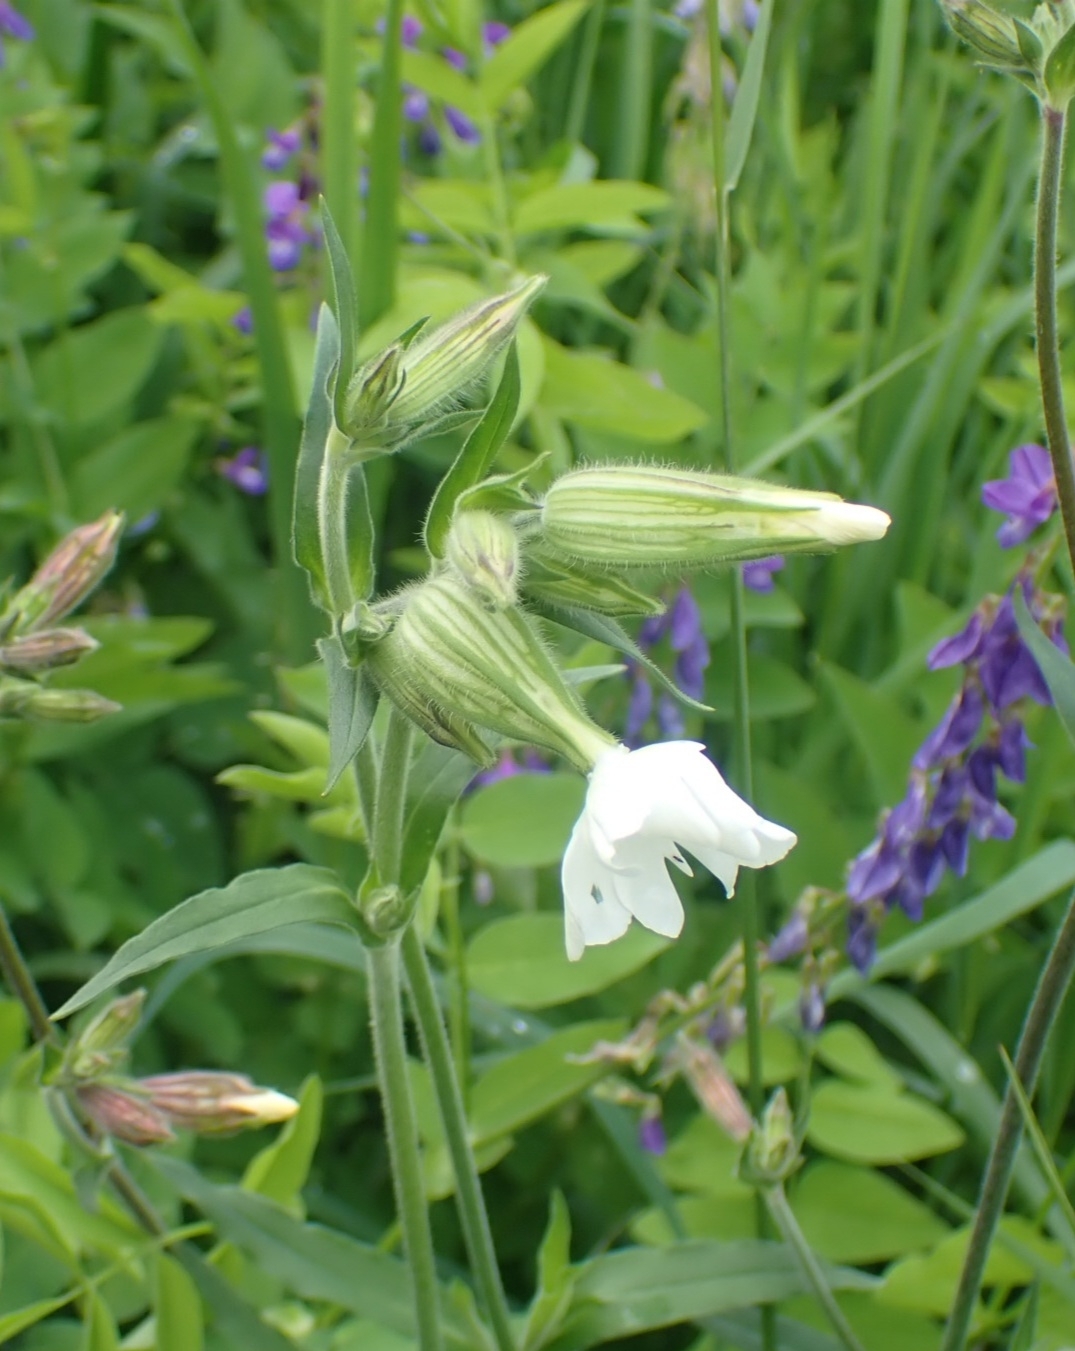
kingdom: Plantae
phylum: Tracheophyta
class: Magnoliopsida
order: Caryophyllales
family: Caryophyllaceae
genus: Silene
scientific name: Silene latifolia
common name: White campion
